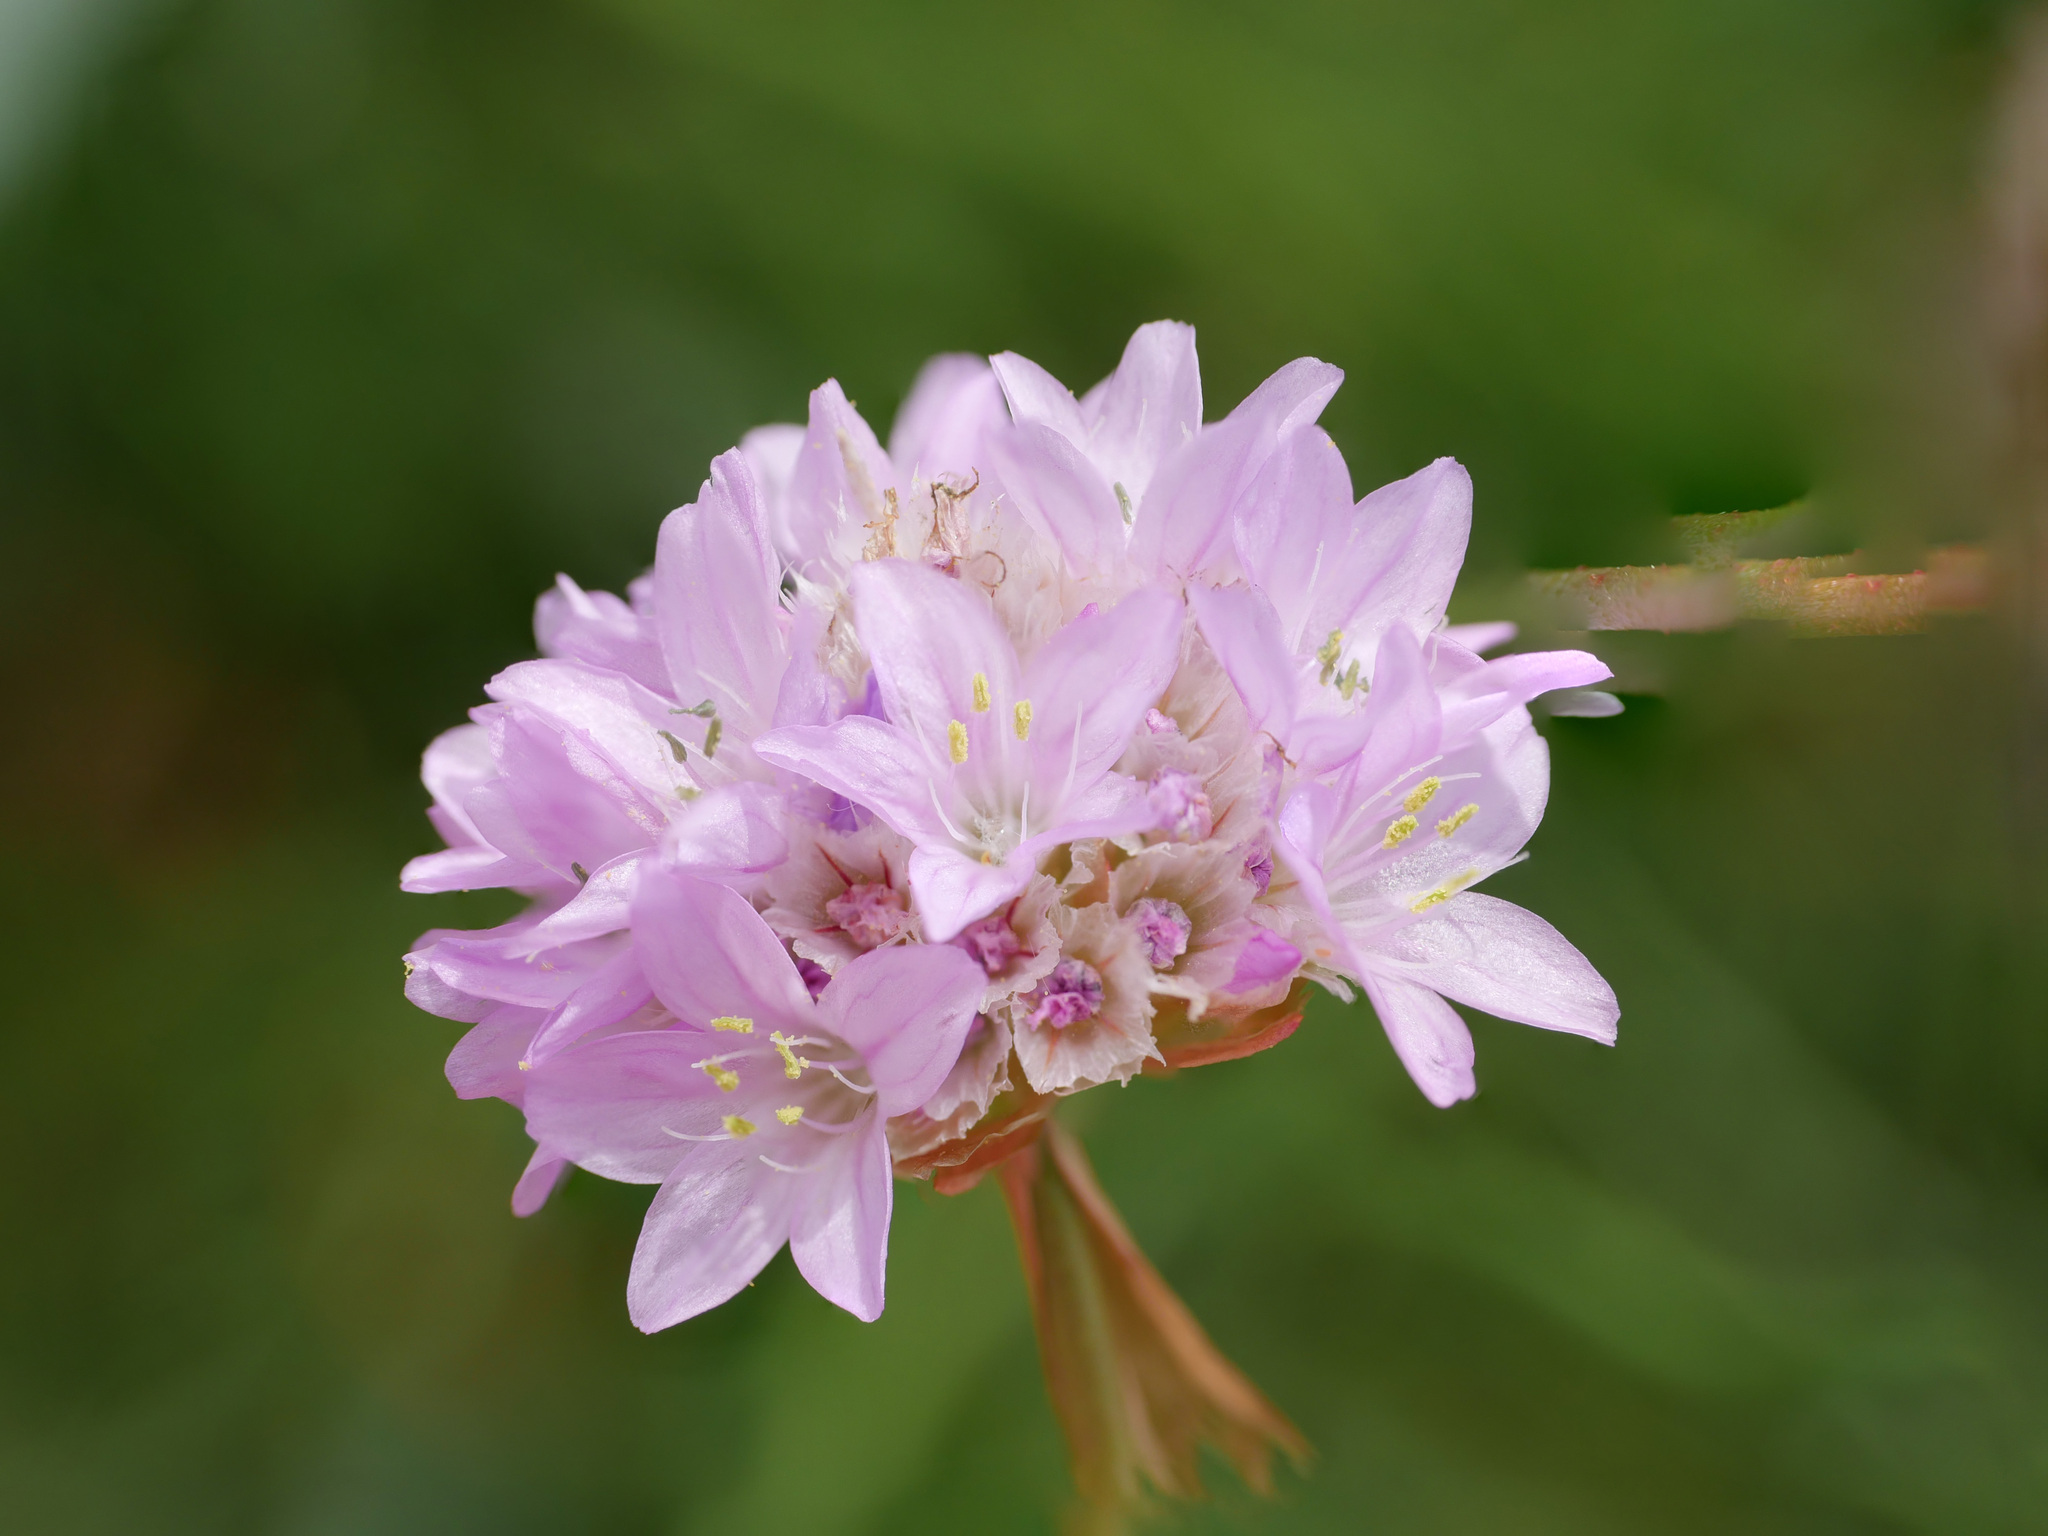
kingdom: Plantae
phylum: Tracheophyta
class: Magnoliopsida
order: Caryophyllales
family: Plumbaginaceae
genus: Armeria
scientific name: Armeria maritima
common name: Thrift
